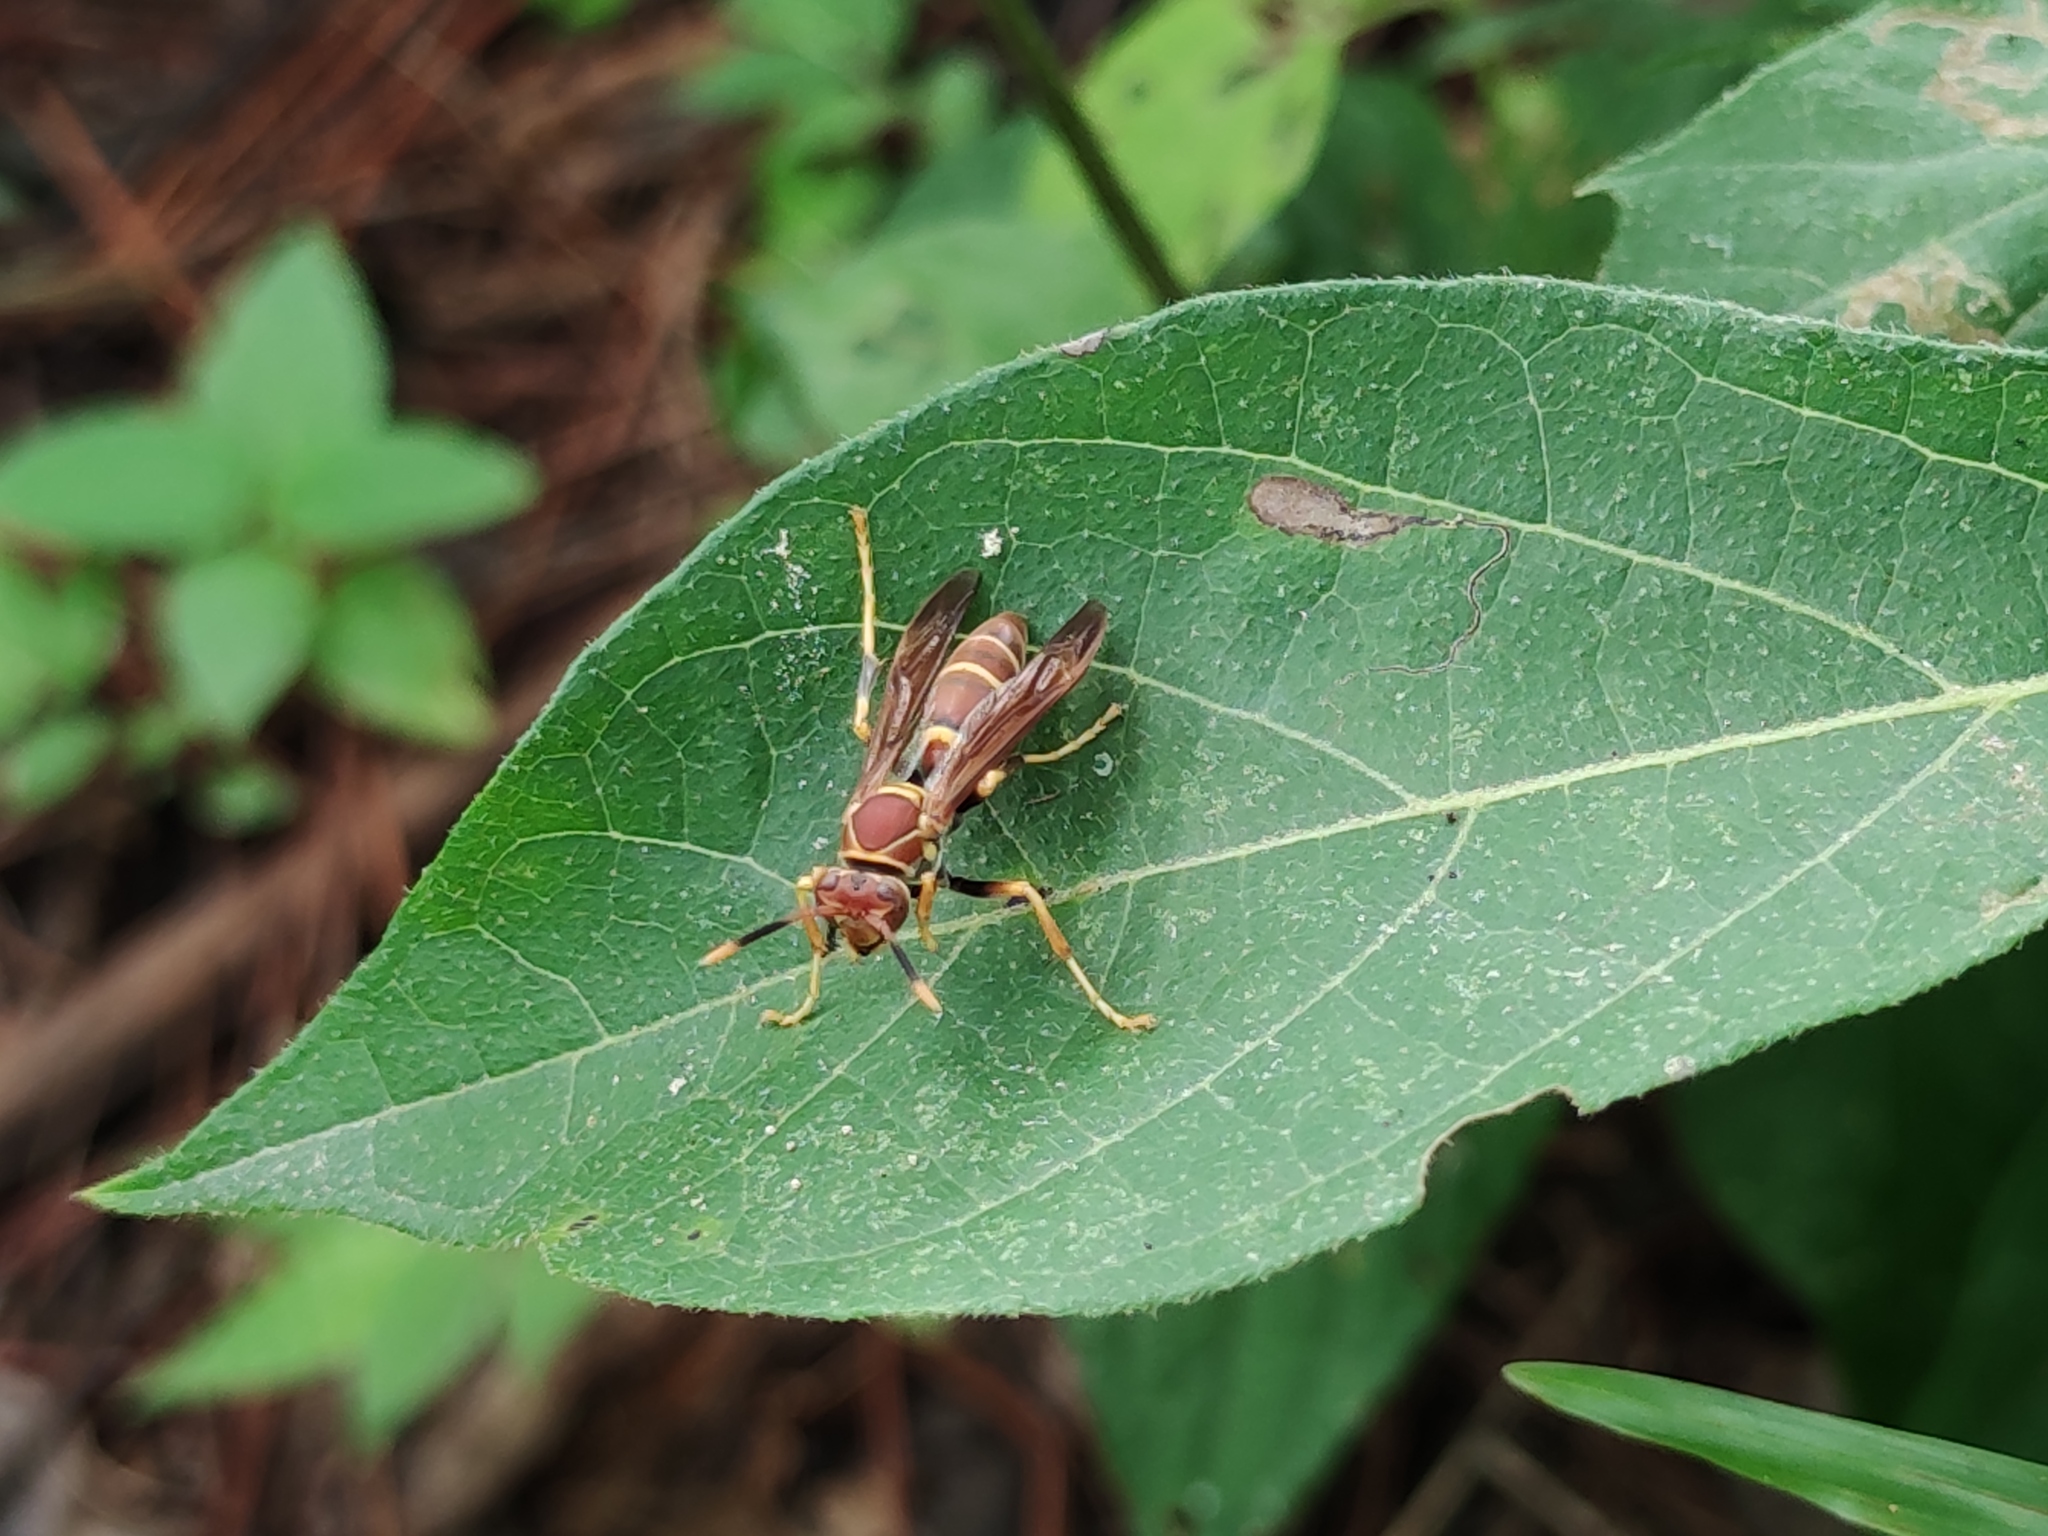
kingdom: Animalia
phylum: Arthropoda
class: Insecta
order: Hymenoptera
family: Eumenidae
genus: Polistes
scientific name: Polistes instabilis
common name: Unstable paper wasp
